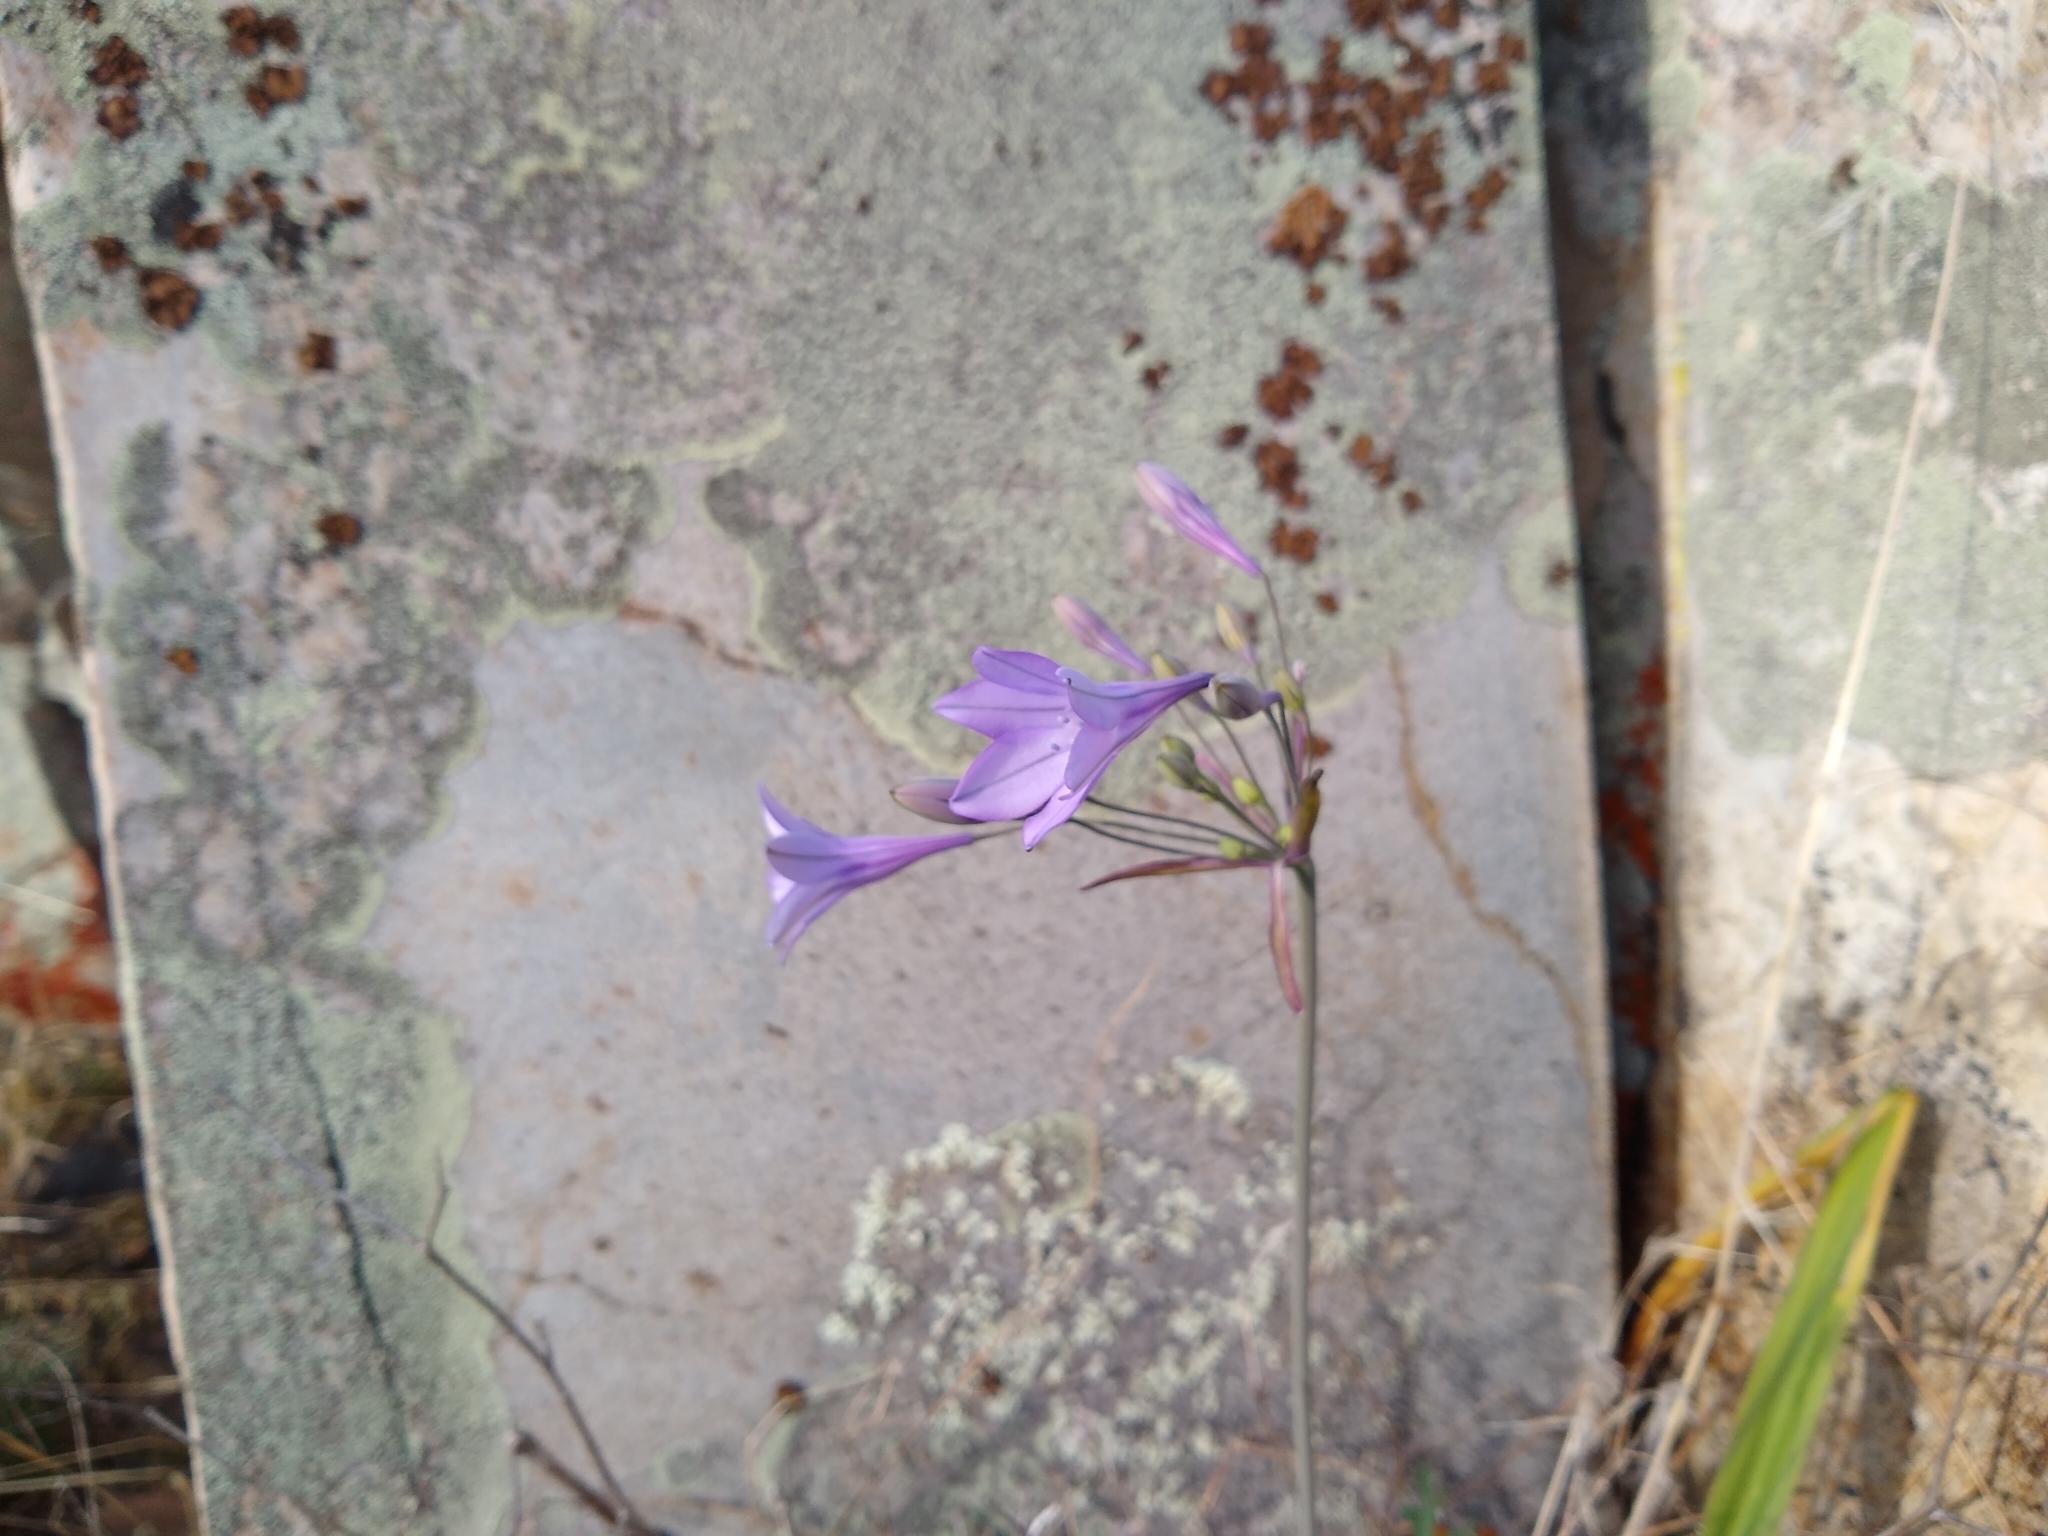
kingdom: Plantae
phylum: Tracheophyta
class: Liliopsida
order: Asparagales
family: Asparagaceae
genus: Triteleia
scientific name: Triteleia laxa
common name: Triplet-lily
